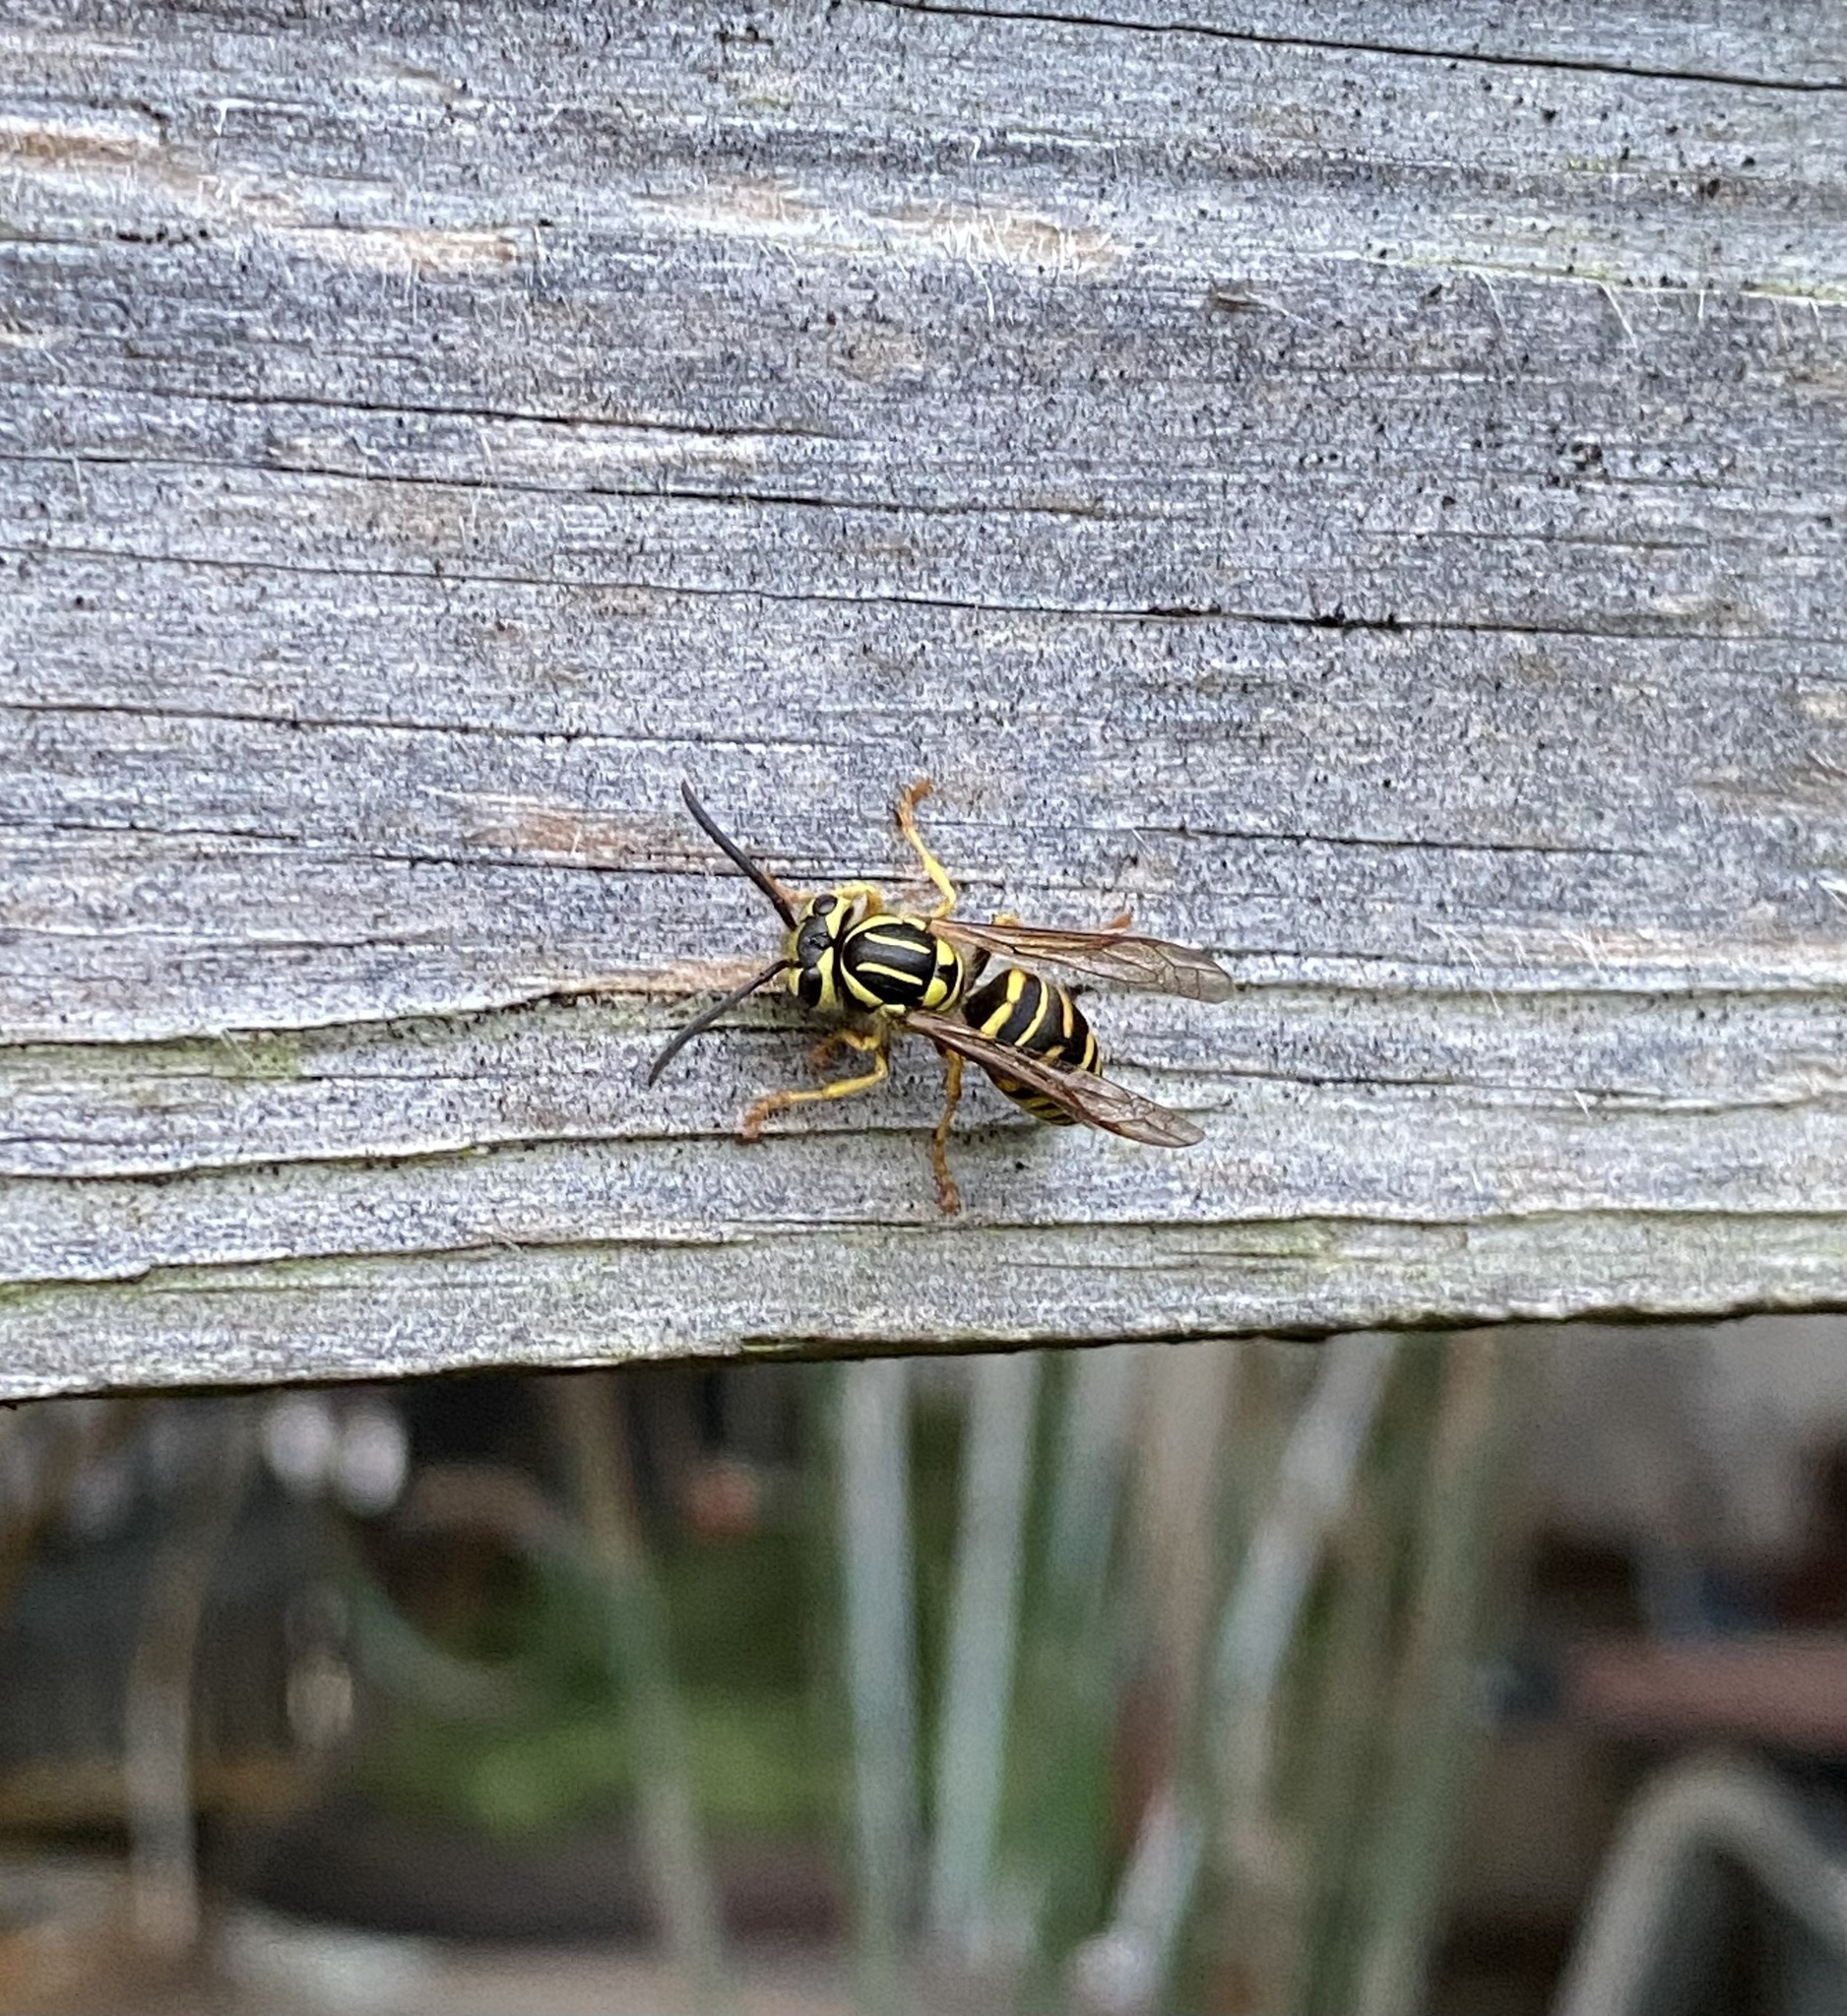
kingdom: Animalia
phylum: Arthropoda
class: Insecta
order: Hymenoptera
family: Vespidae
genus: Vespula
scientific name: Vespula squamosa
